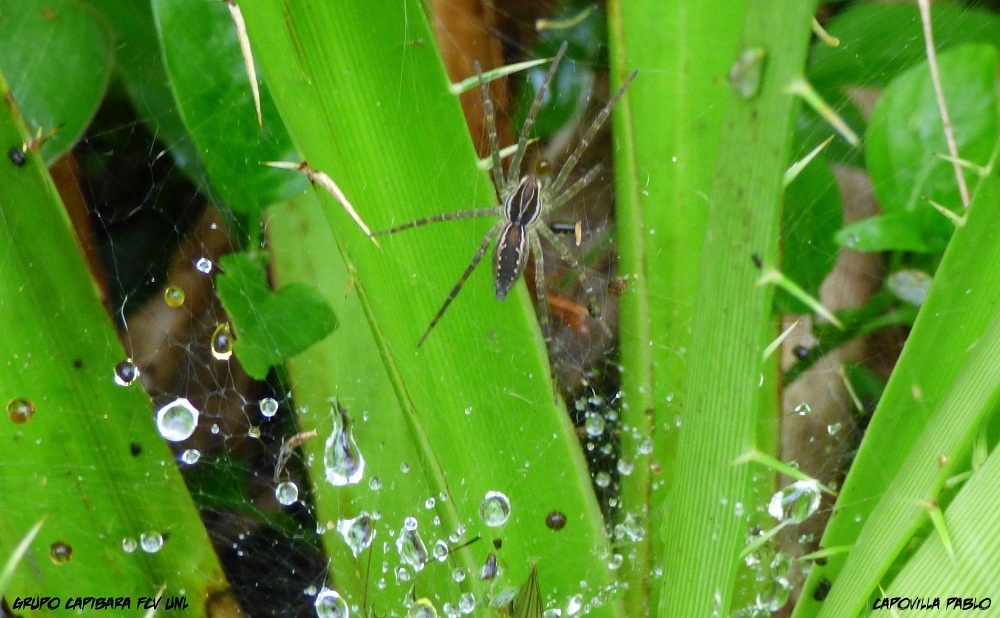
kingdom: Animalia
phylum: Arthropoda
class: Arachnida
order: Araneae
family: Lycosidae
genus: Aglaoctenus
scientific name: Aglaoctenus lagotis
